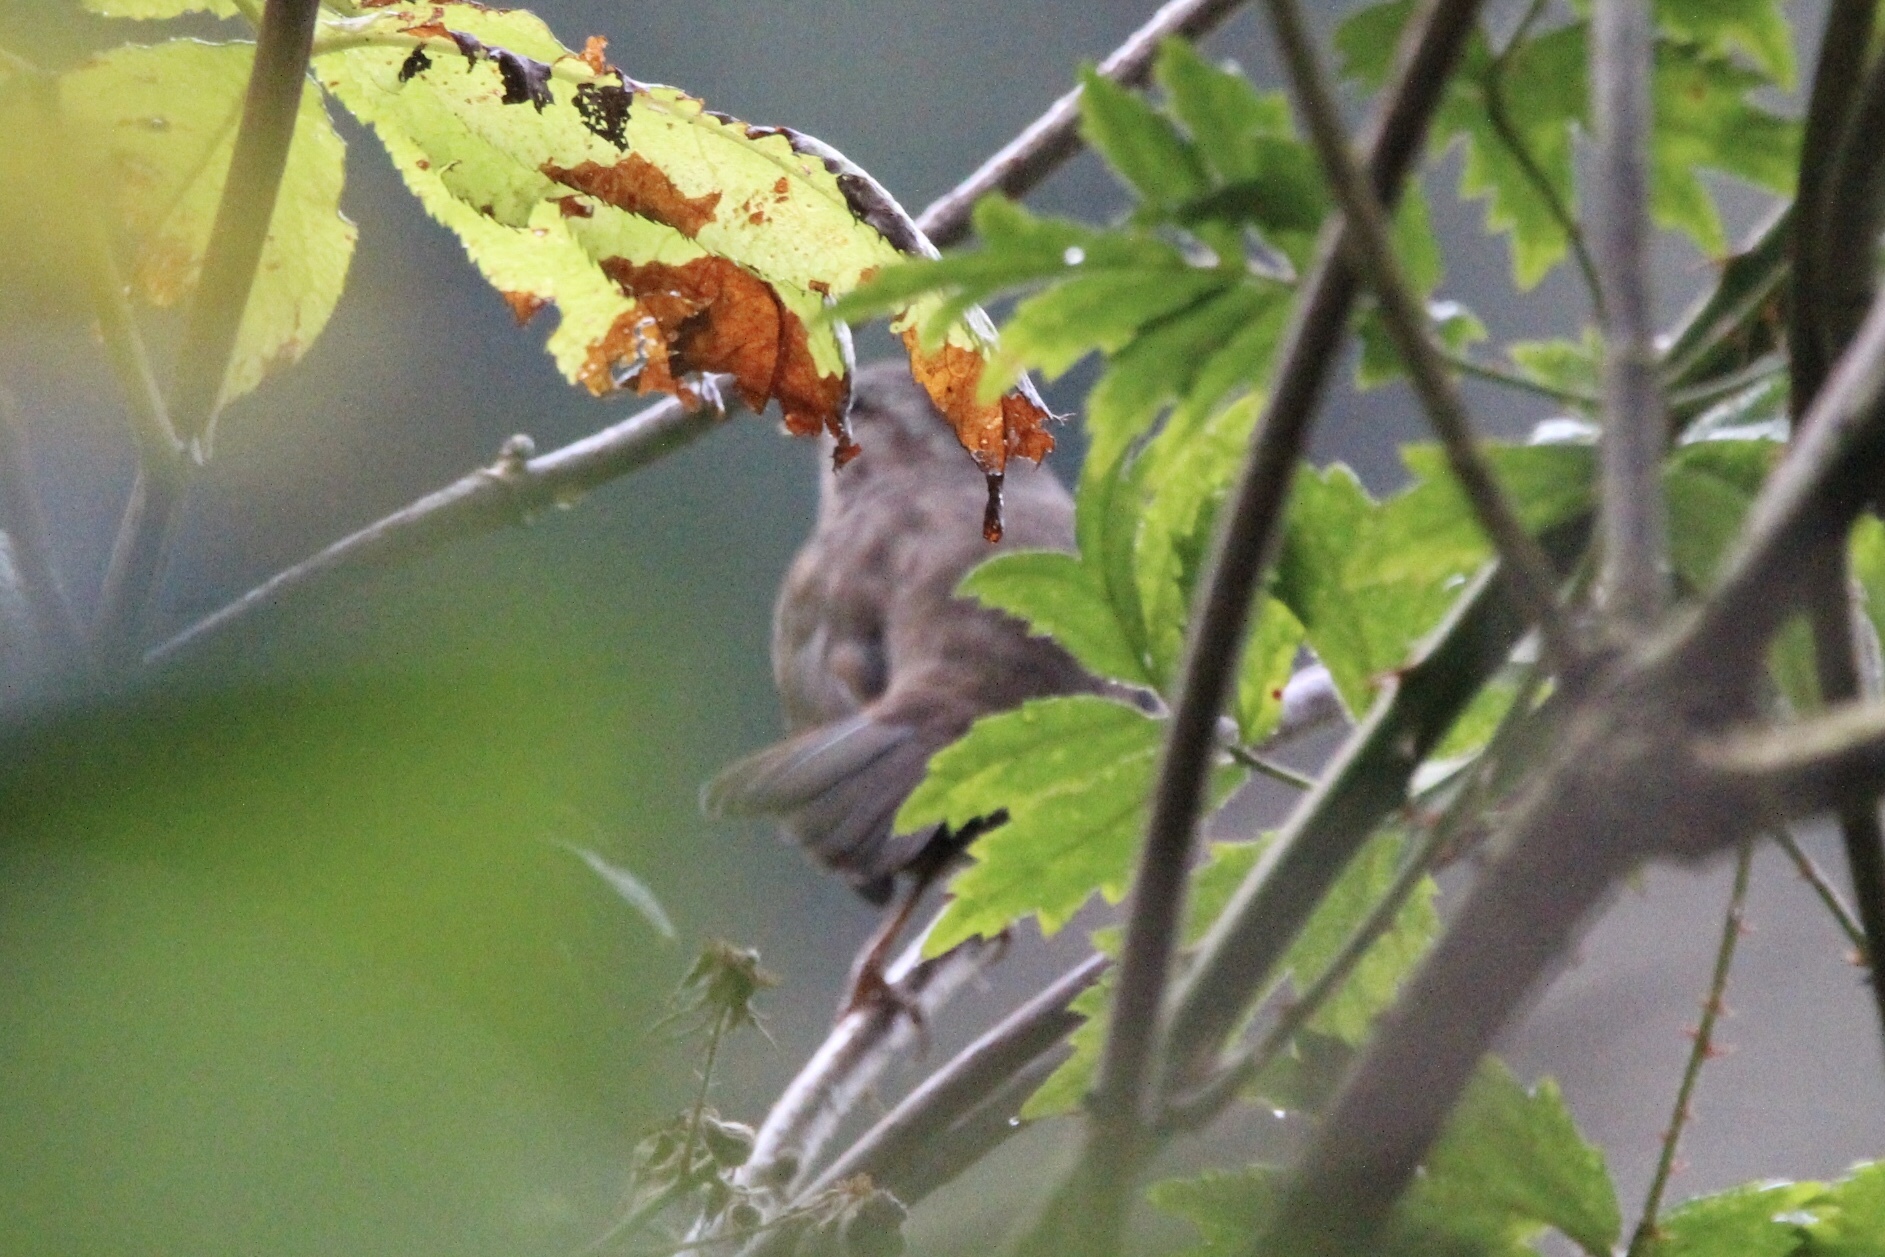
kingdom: Animalia
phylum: Chordata
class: Aves
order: Passeriformes
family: Passerellidae
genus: Melospiza
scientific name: Melospiza melodia
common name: Song sparrow
